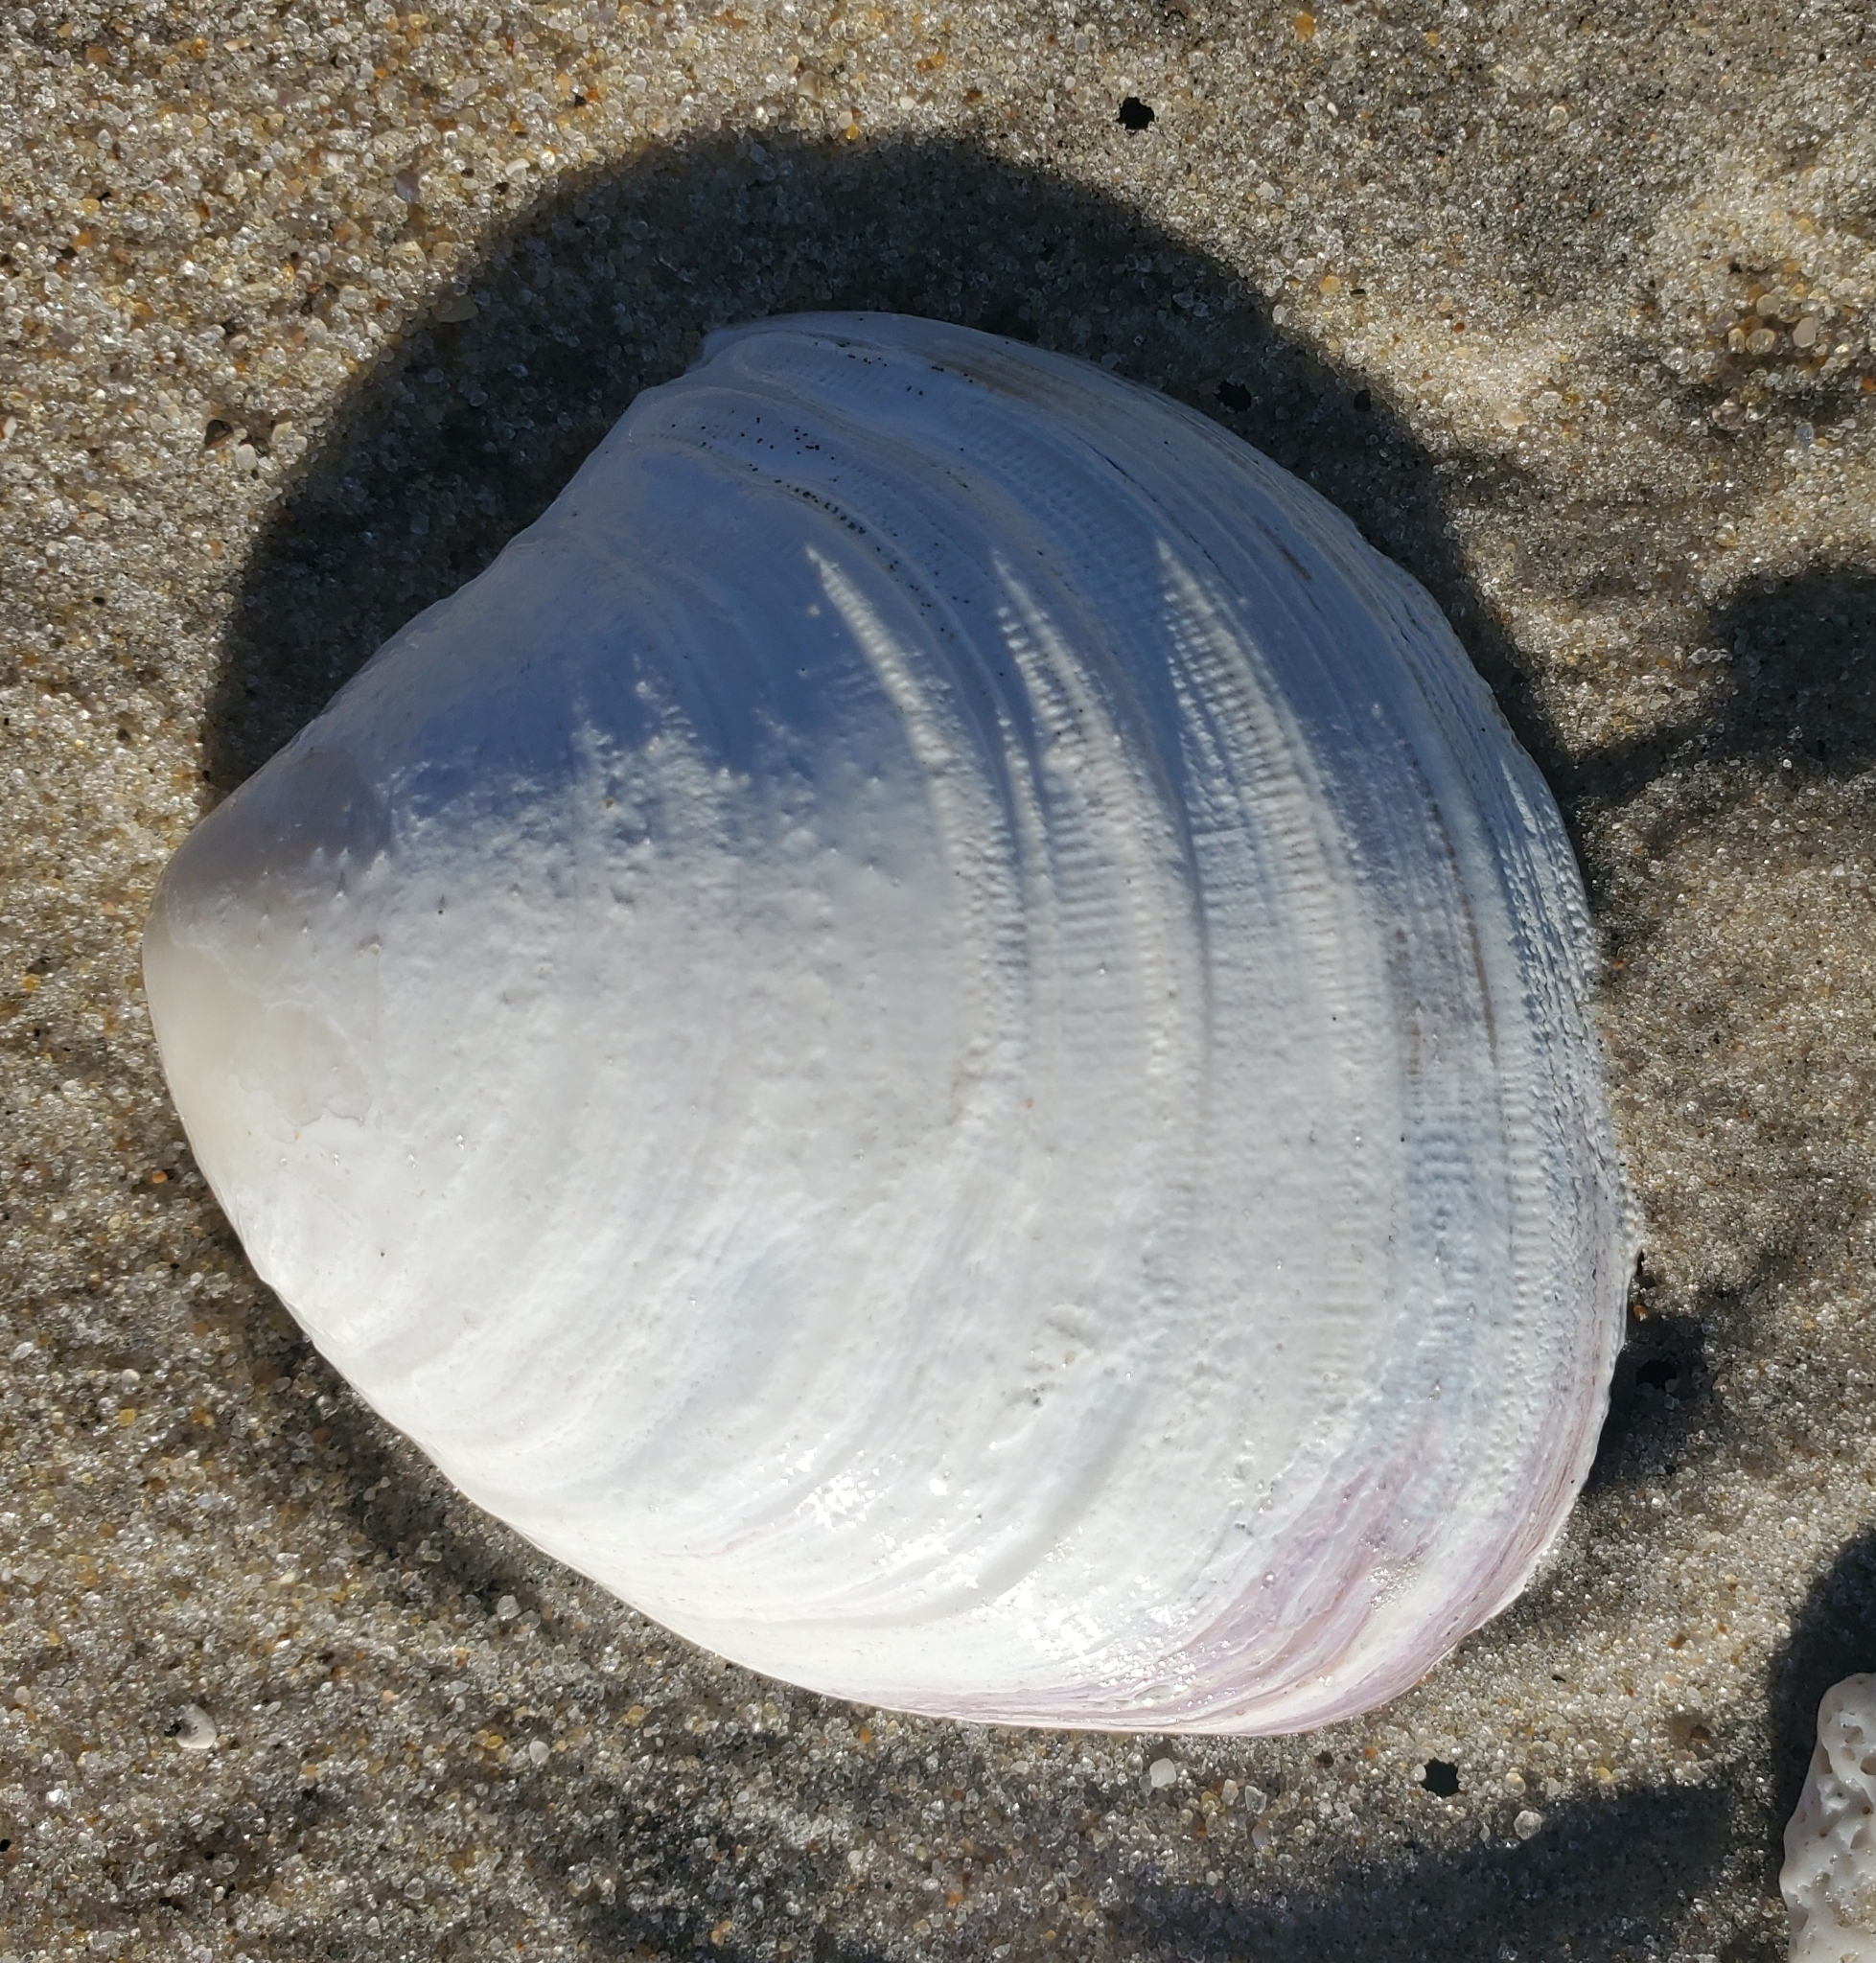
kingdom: Animalia
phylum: Mollusca
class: Bivalvia
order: Venerida
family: Veneridae
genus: Mercenaria
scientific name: Mercenaria mercenaria
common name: American hard-shelled clam
